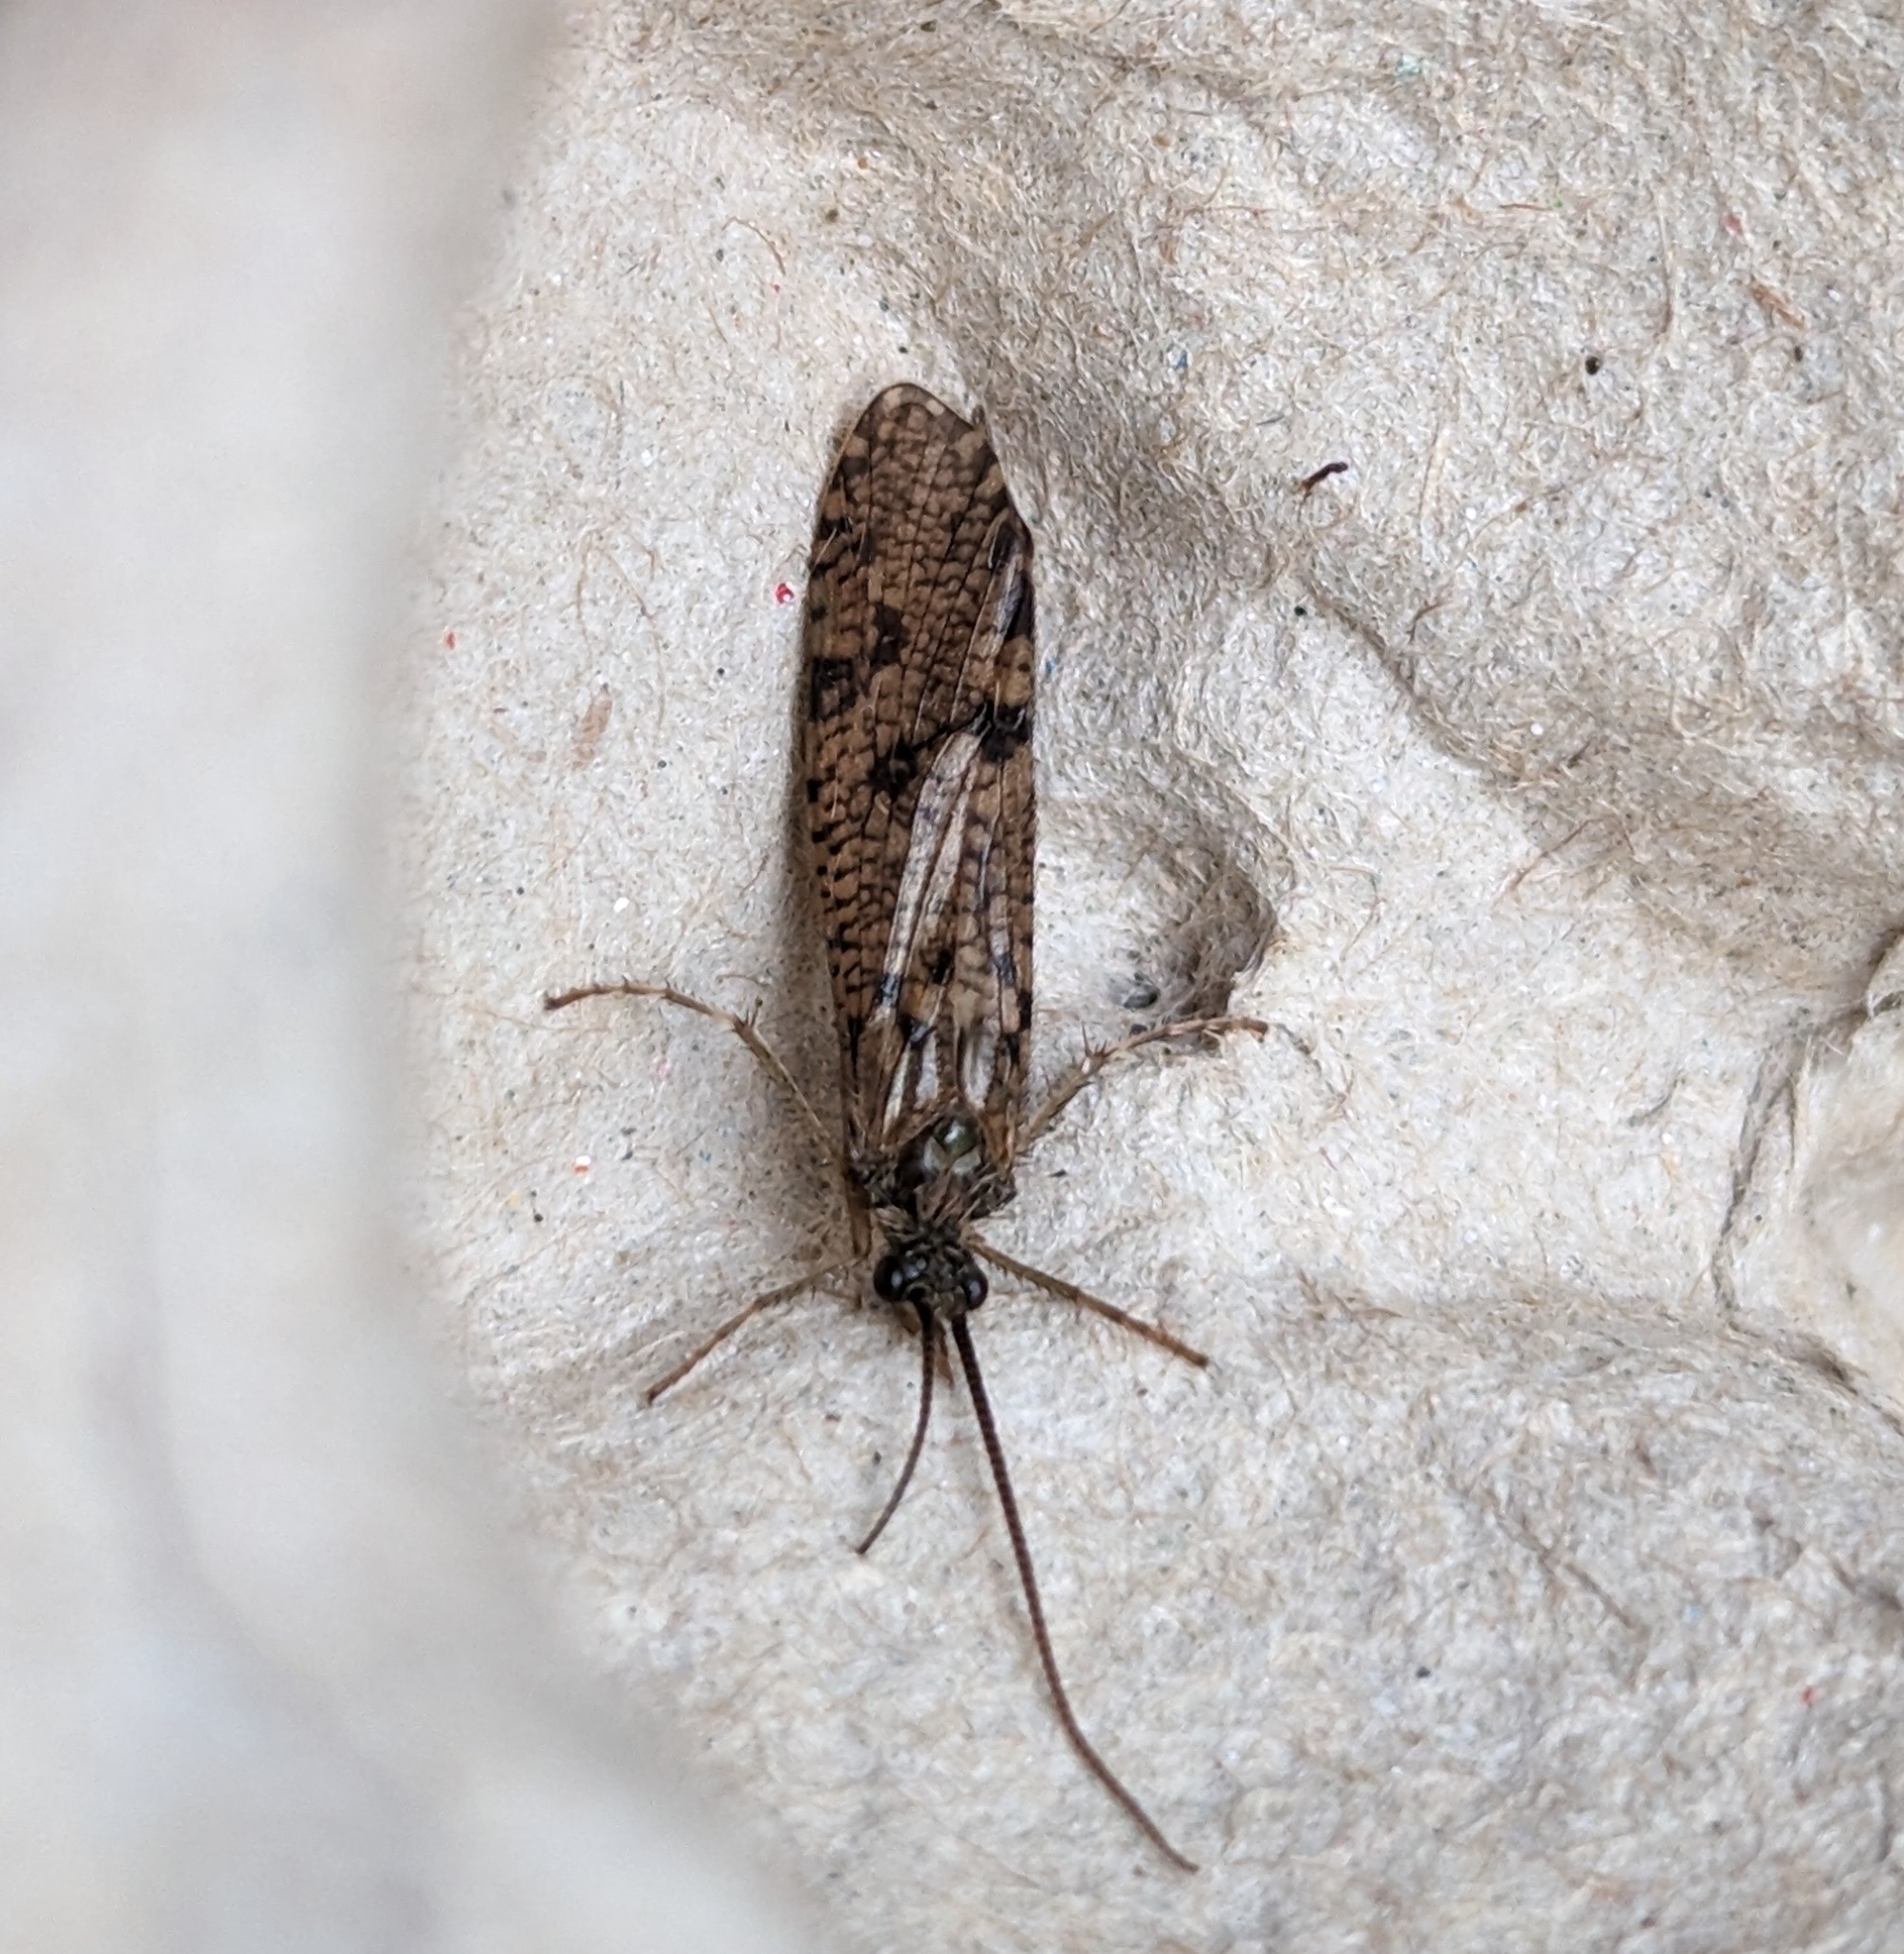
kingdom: Animalia
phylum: Arthropoda
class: Insecta
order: Trichoptera
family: Phryganeidae
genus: Banksiola
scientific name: Banksiola crotchi
